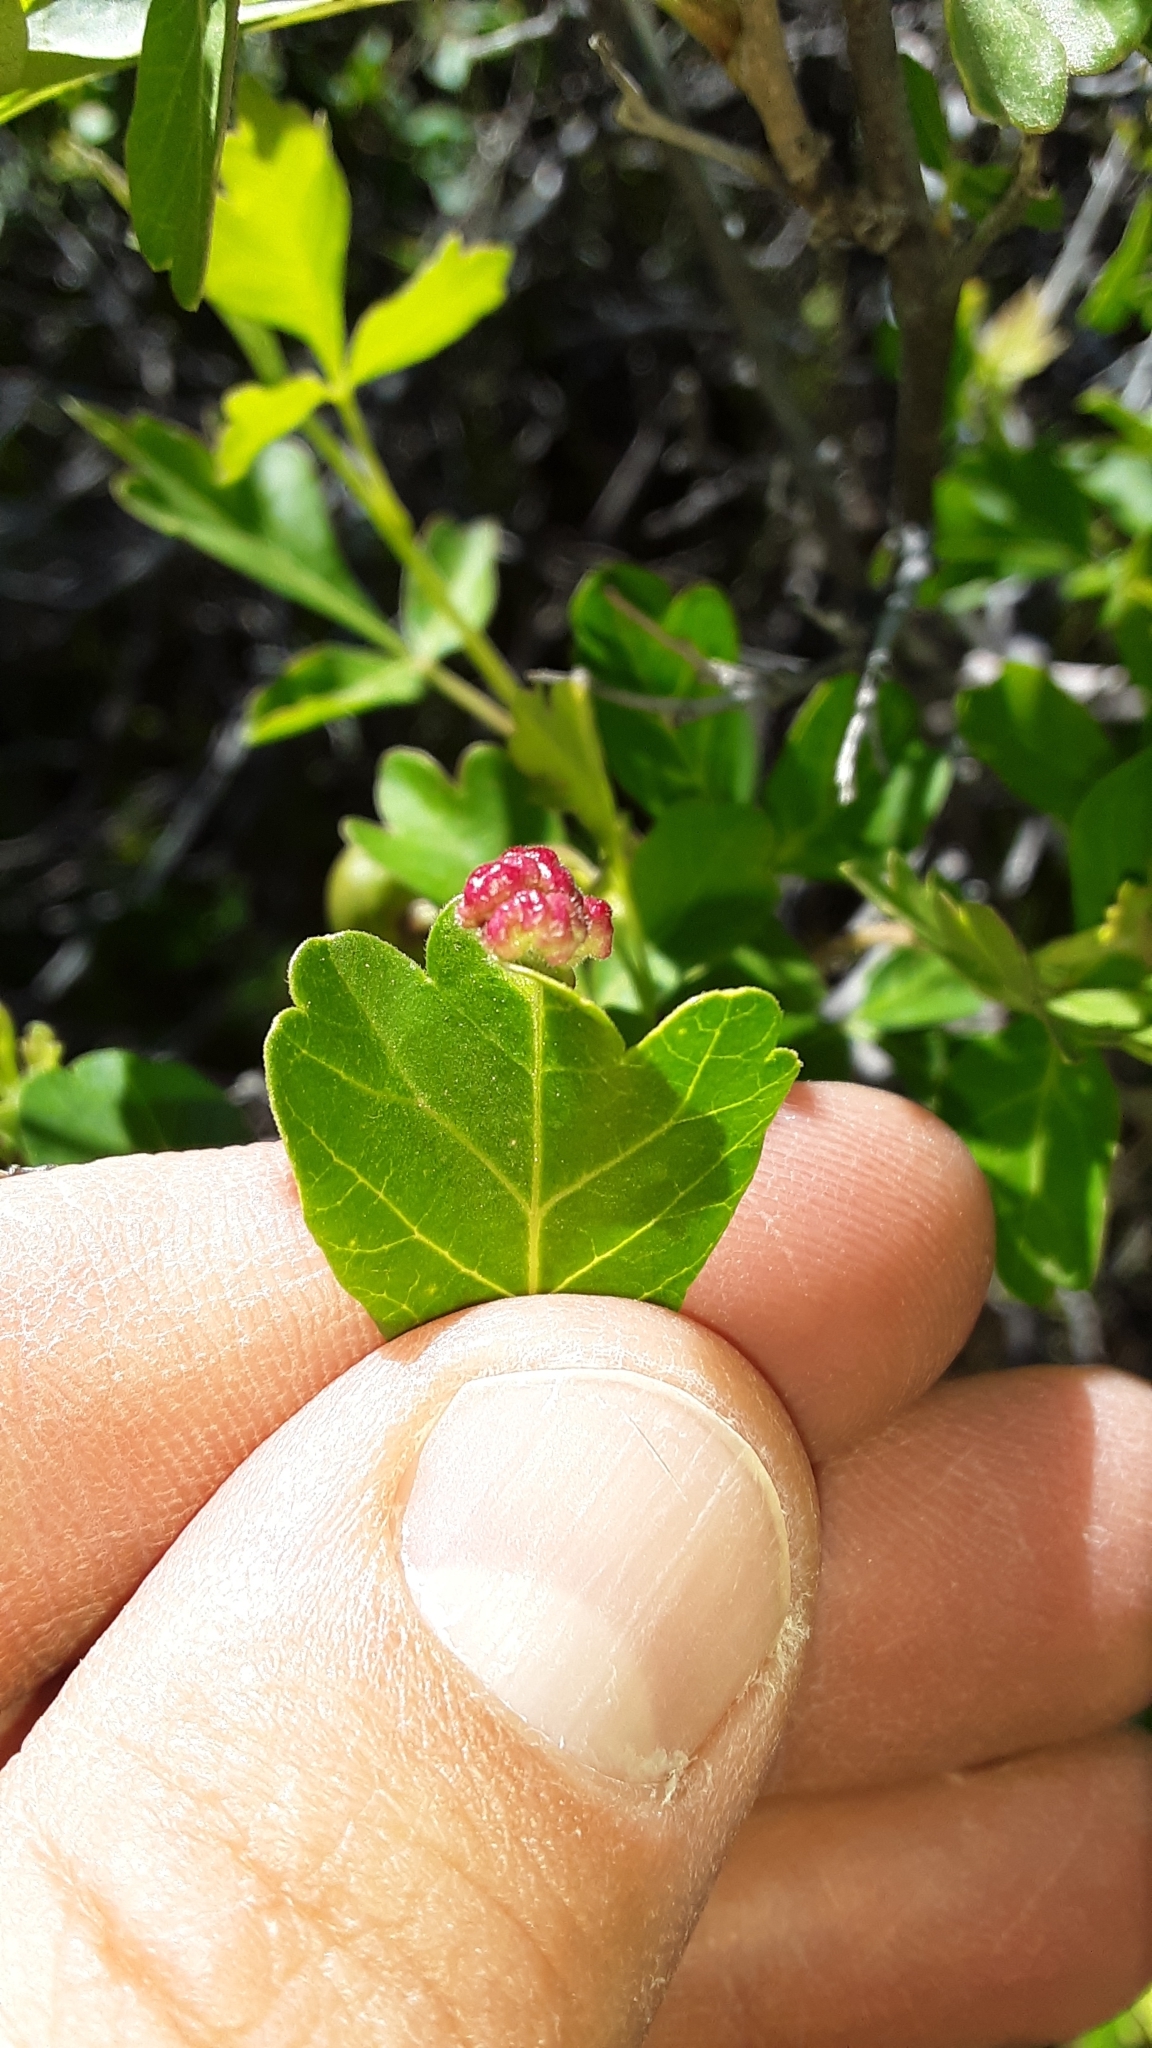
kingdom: Animalia
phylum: Arthropoda
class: Arachnida
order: Trombidiformes
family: Eriophyidae
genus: Aculops
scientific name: Aculops
